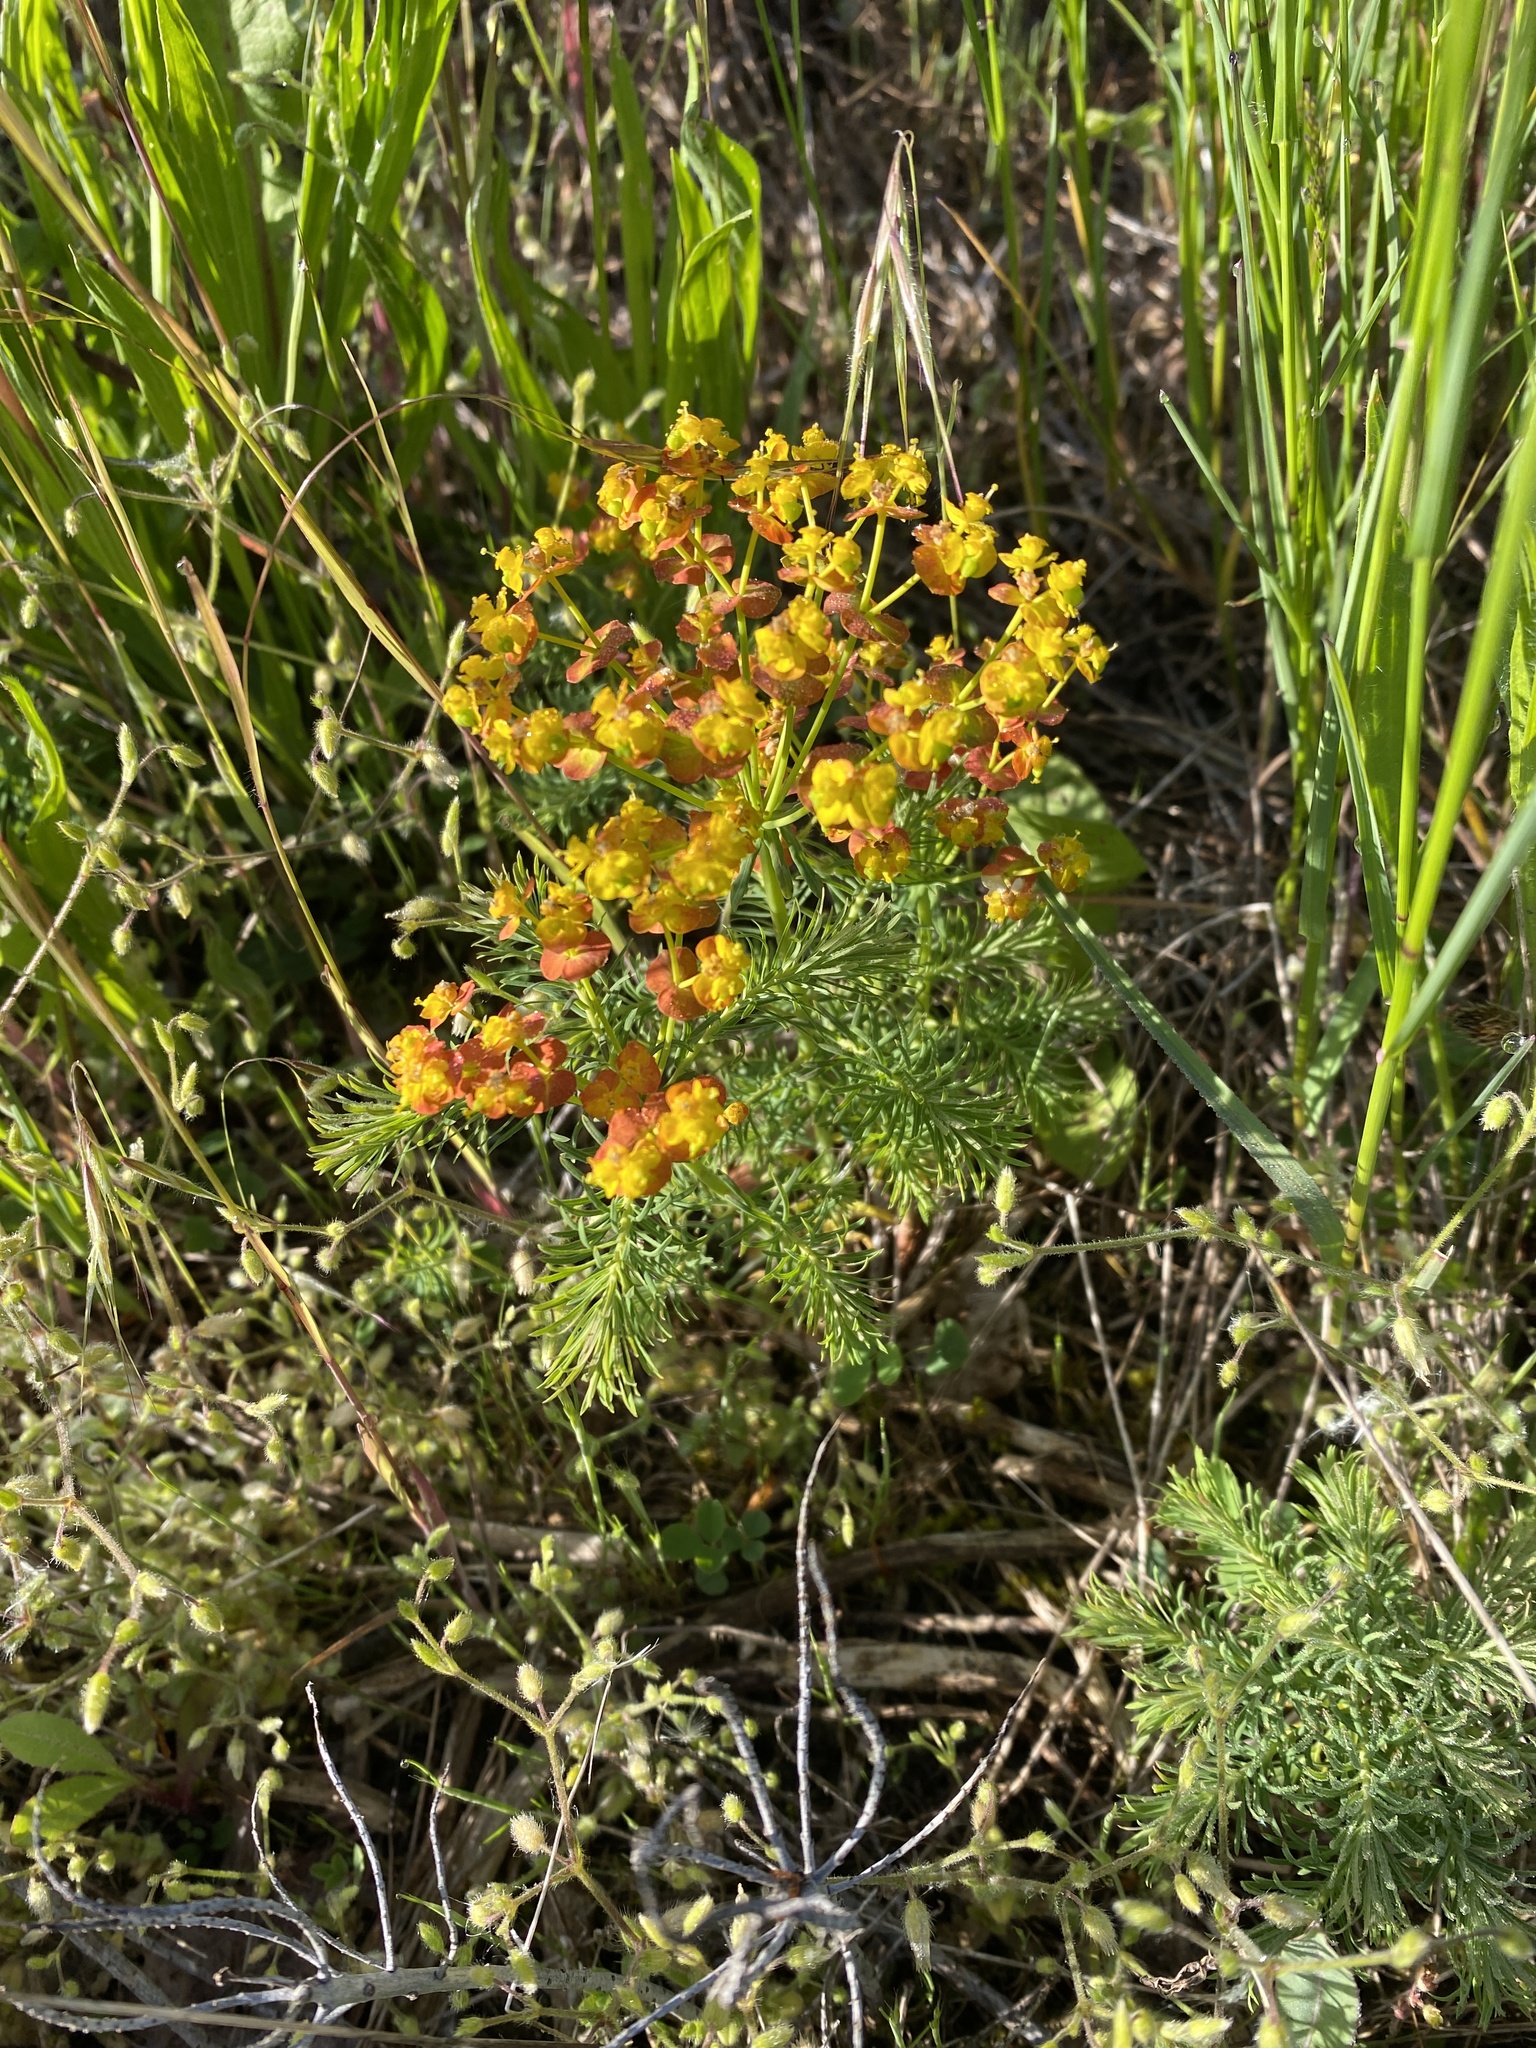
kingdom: Plantae
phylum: Tracheophyta
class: Magnoliopsida
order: Malpighiales
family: Euphorbiaceae
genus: Euphorbia
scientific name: Euphorbia cyparissias
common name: Cypress spurge
